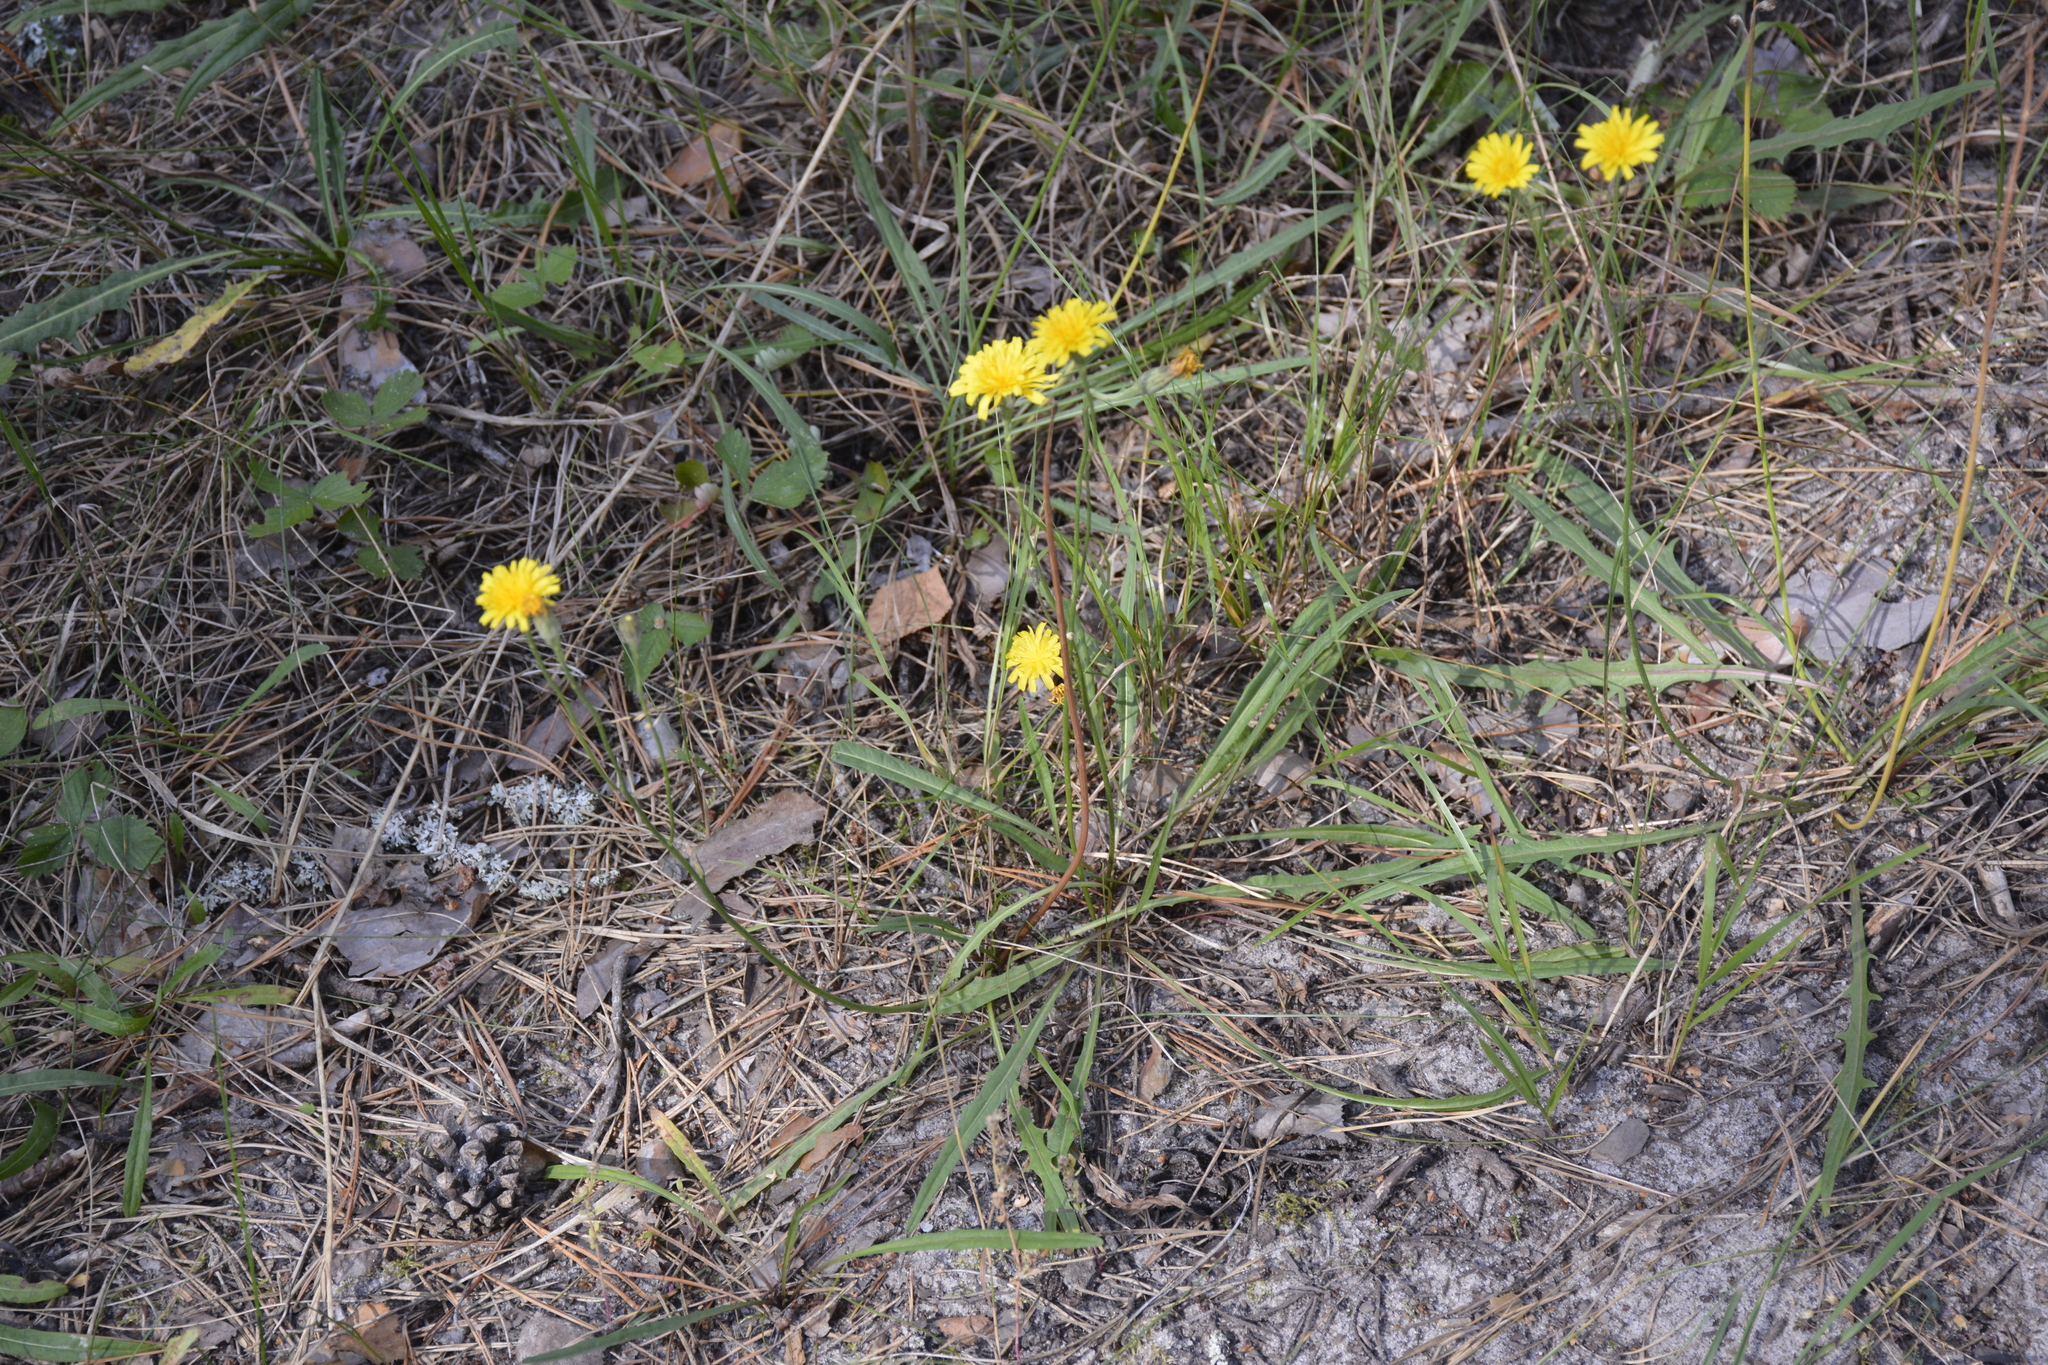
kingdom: Plantae
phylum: Tracheophyta
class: Magnoliopsida
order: Asterales
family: Asteraceae
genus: Scorzoneroides
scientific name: Scorzoneroides autumnalis
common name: Autumn hawkbit
